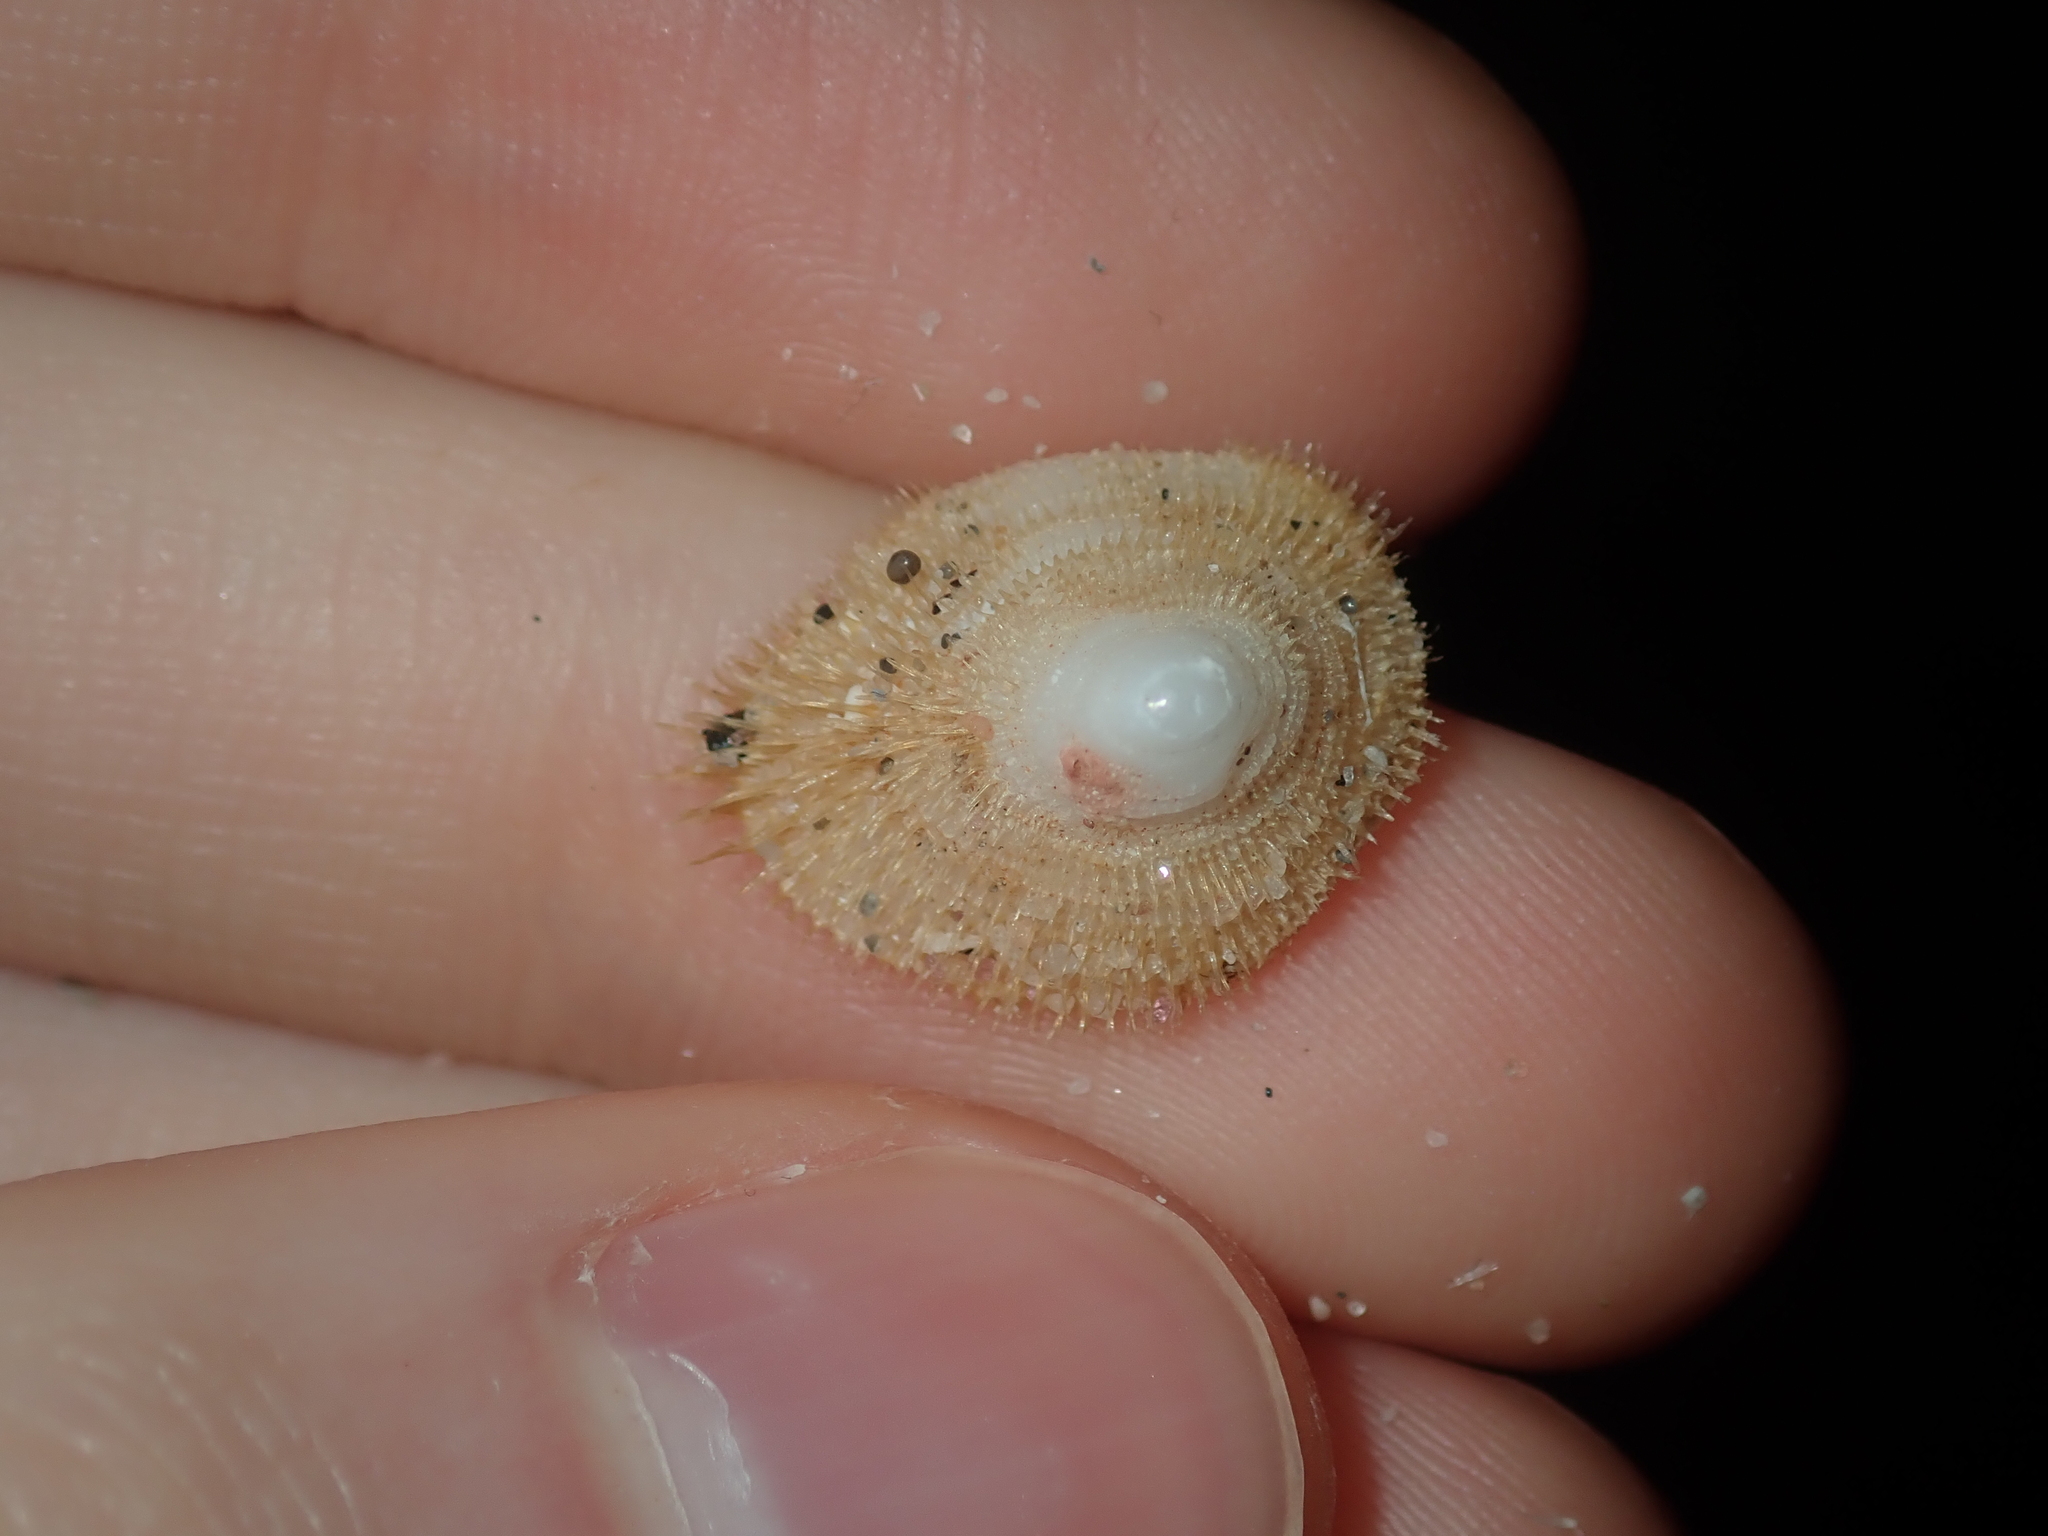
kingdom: Animalia
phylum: Mollusca
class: Gastropoda
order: Littorinimorpha
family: Hipponicidae
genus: Antisabia
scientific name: Antisabia foliacea
